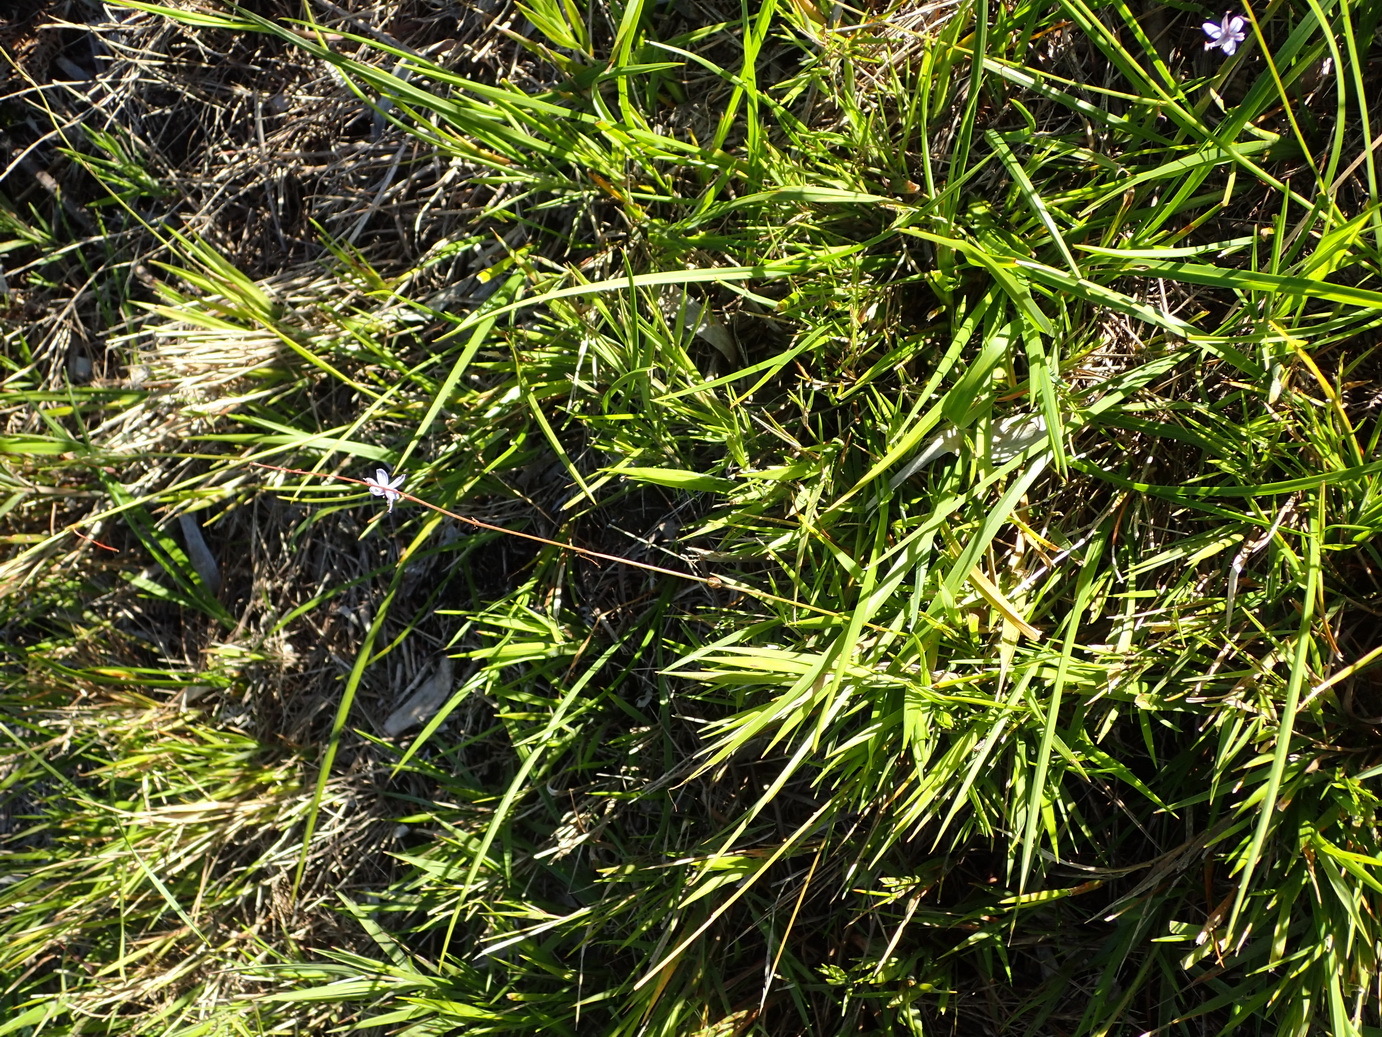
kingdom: Plantae
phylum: Tracheophyta
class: Liliopsida
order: Asparagales
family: Asphodelaceae
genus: Caesia
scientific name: Caesia contorta
